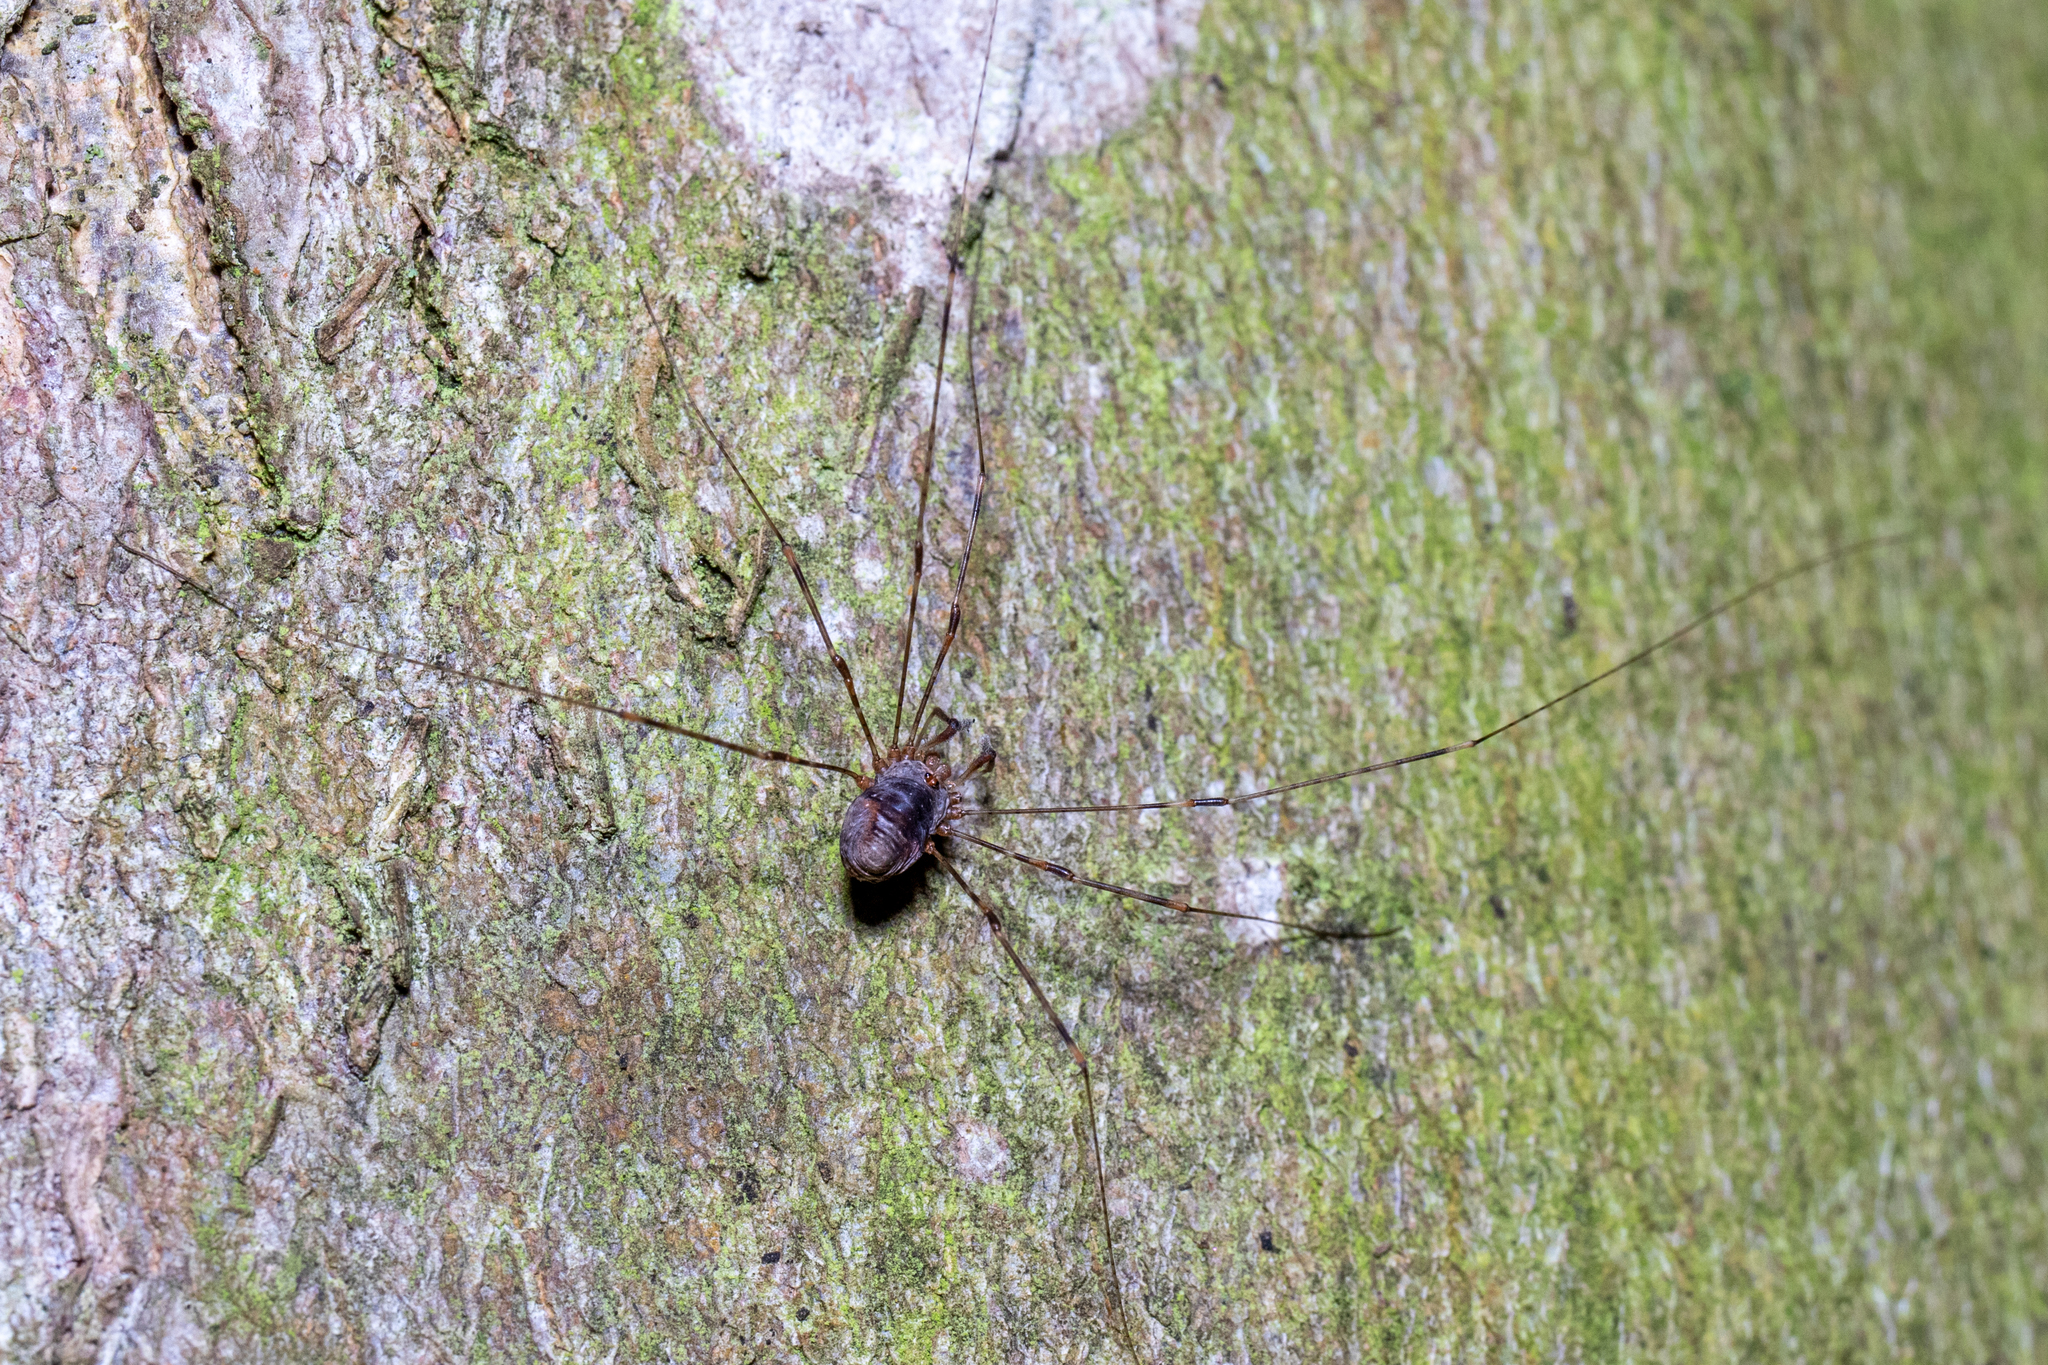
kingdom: Animalia
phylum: Arthropoda
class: Arachnida
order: Opiliones
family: Phalangiidae
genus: Dicranopalpus
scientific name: Dicranopalpus ramosus
